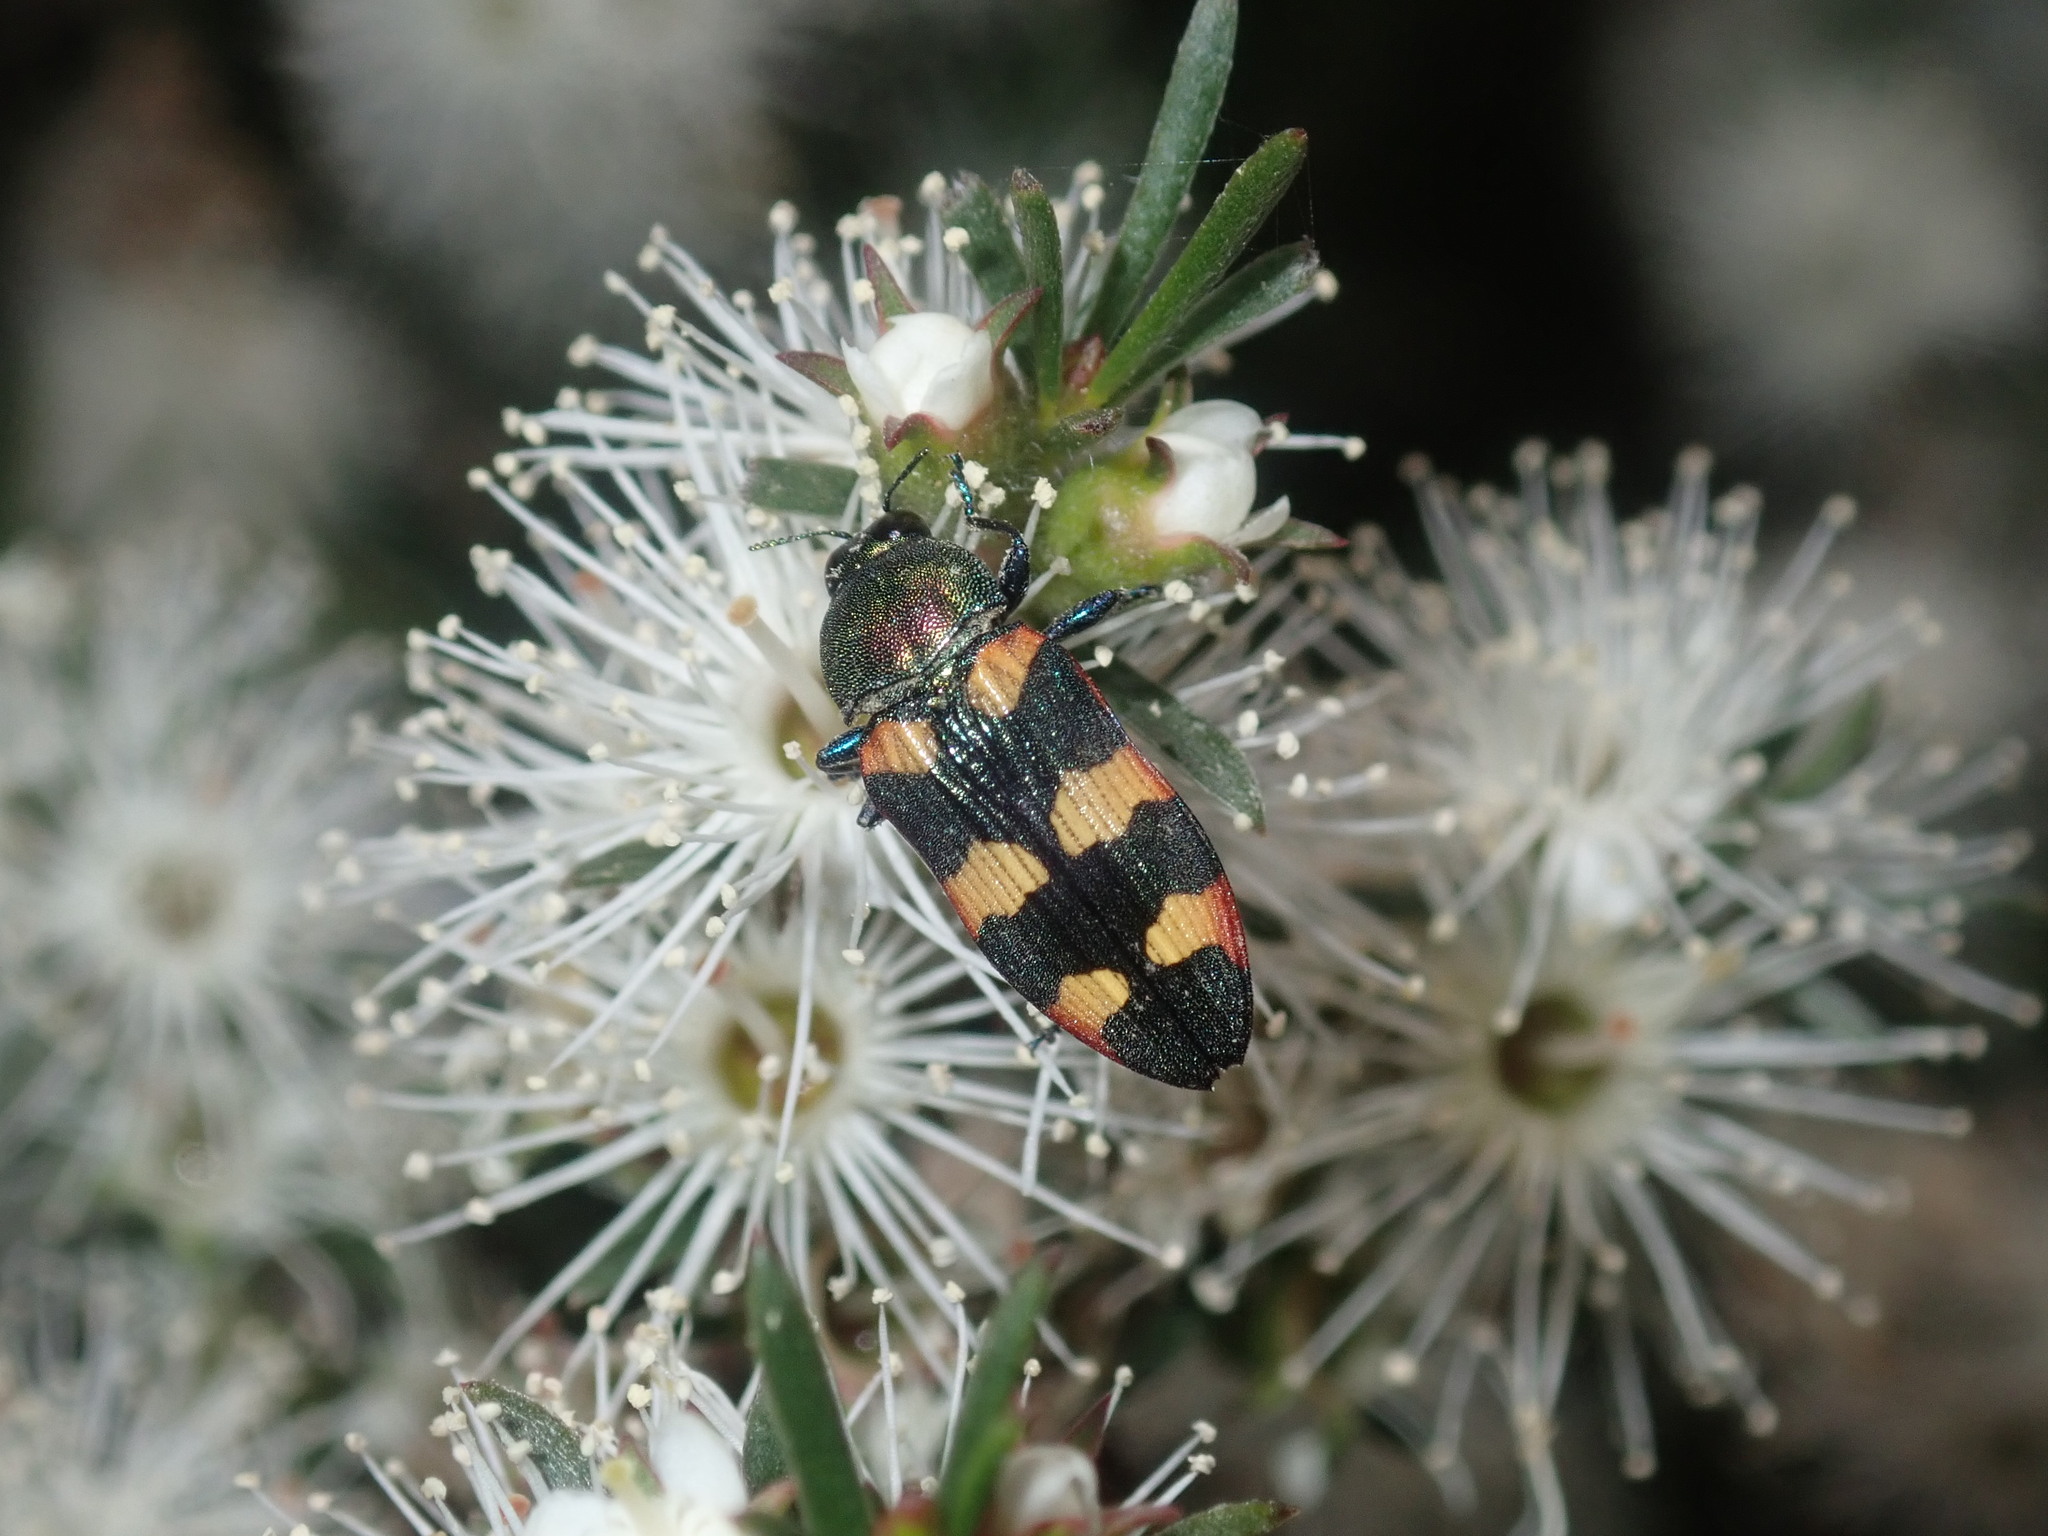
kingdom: Animalia
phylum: Arthropoda
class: Insecta
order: Coleoptera
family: Buprestidae
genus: Castiarina
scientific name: Castiarina sexplagiata
